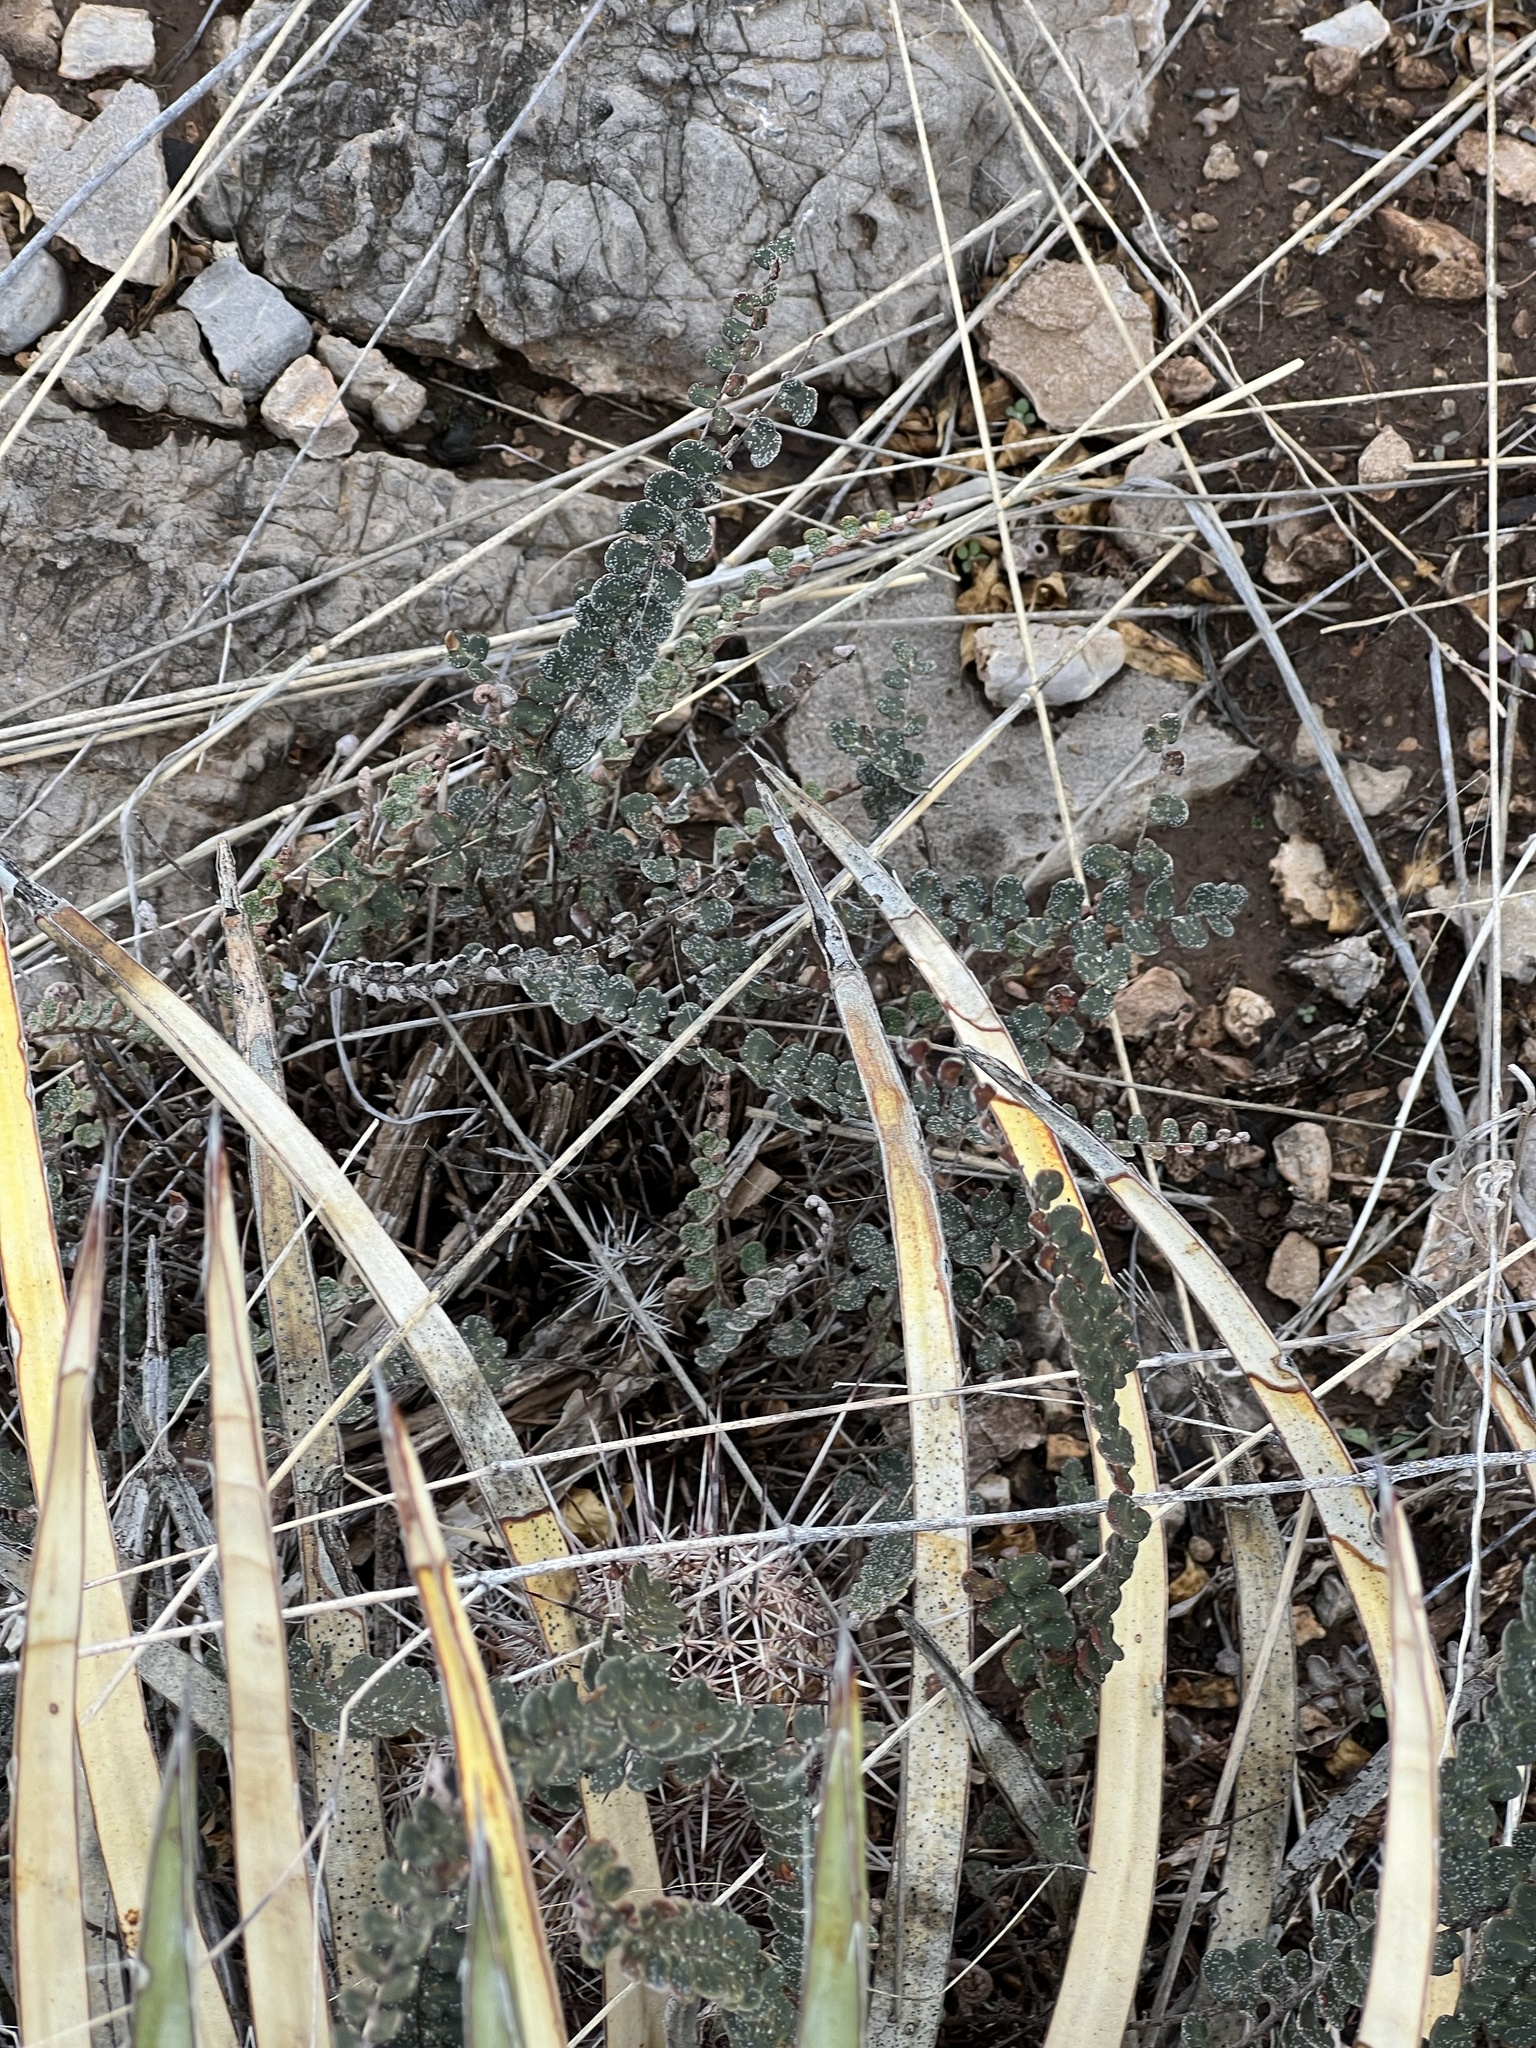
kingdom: Plantae
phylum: Tracheophyta
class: Polypodiopsida
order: Polypodiales
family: Pteridaceae
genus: Astrolepis
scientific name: Astrolepis cochisensis
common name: Scaly cloak fern
